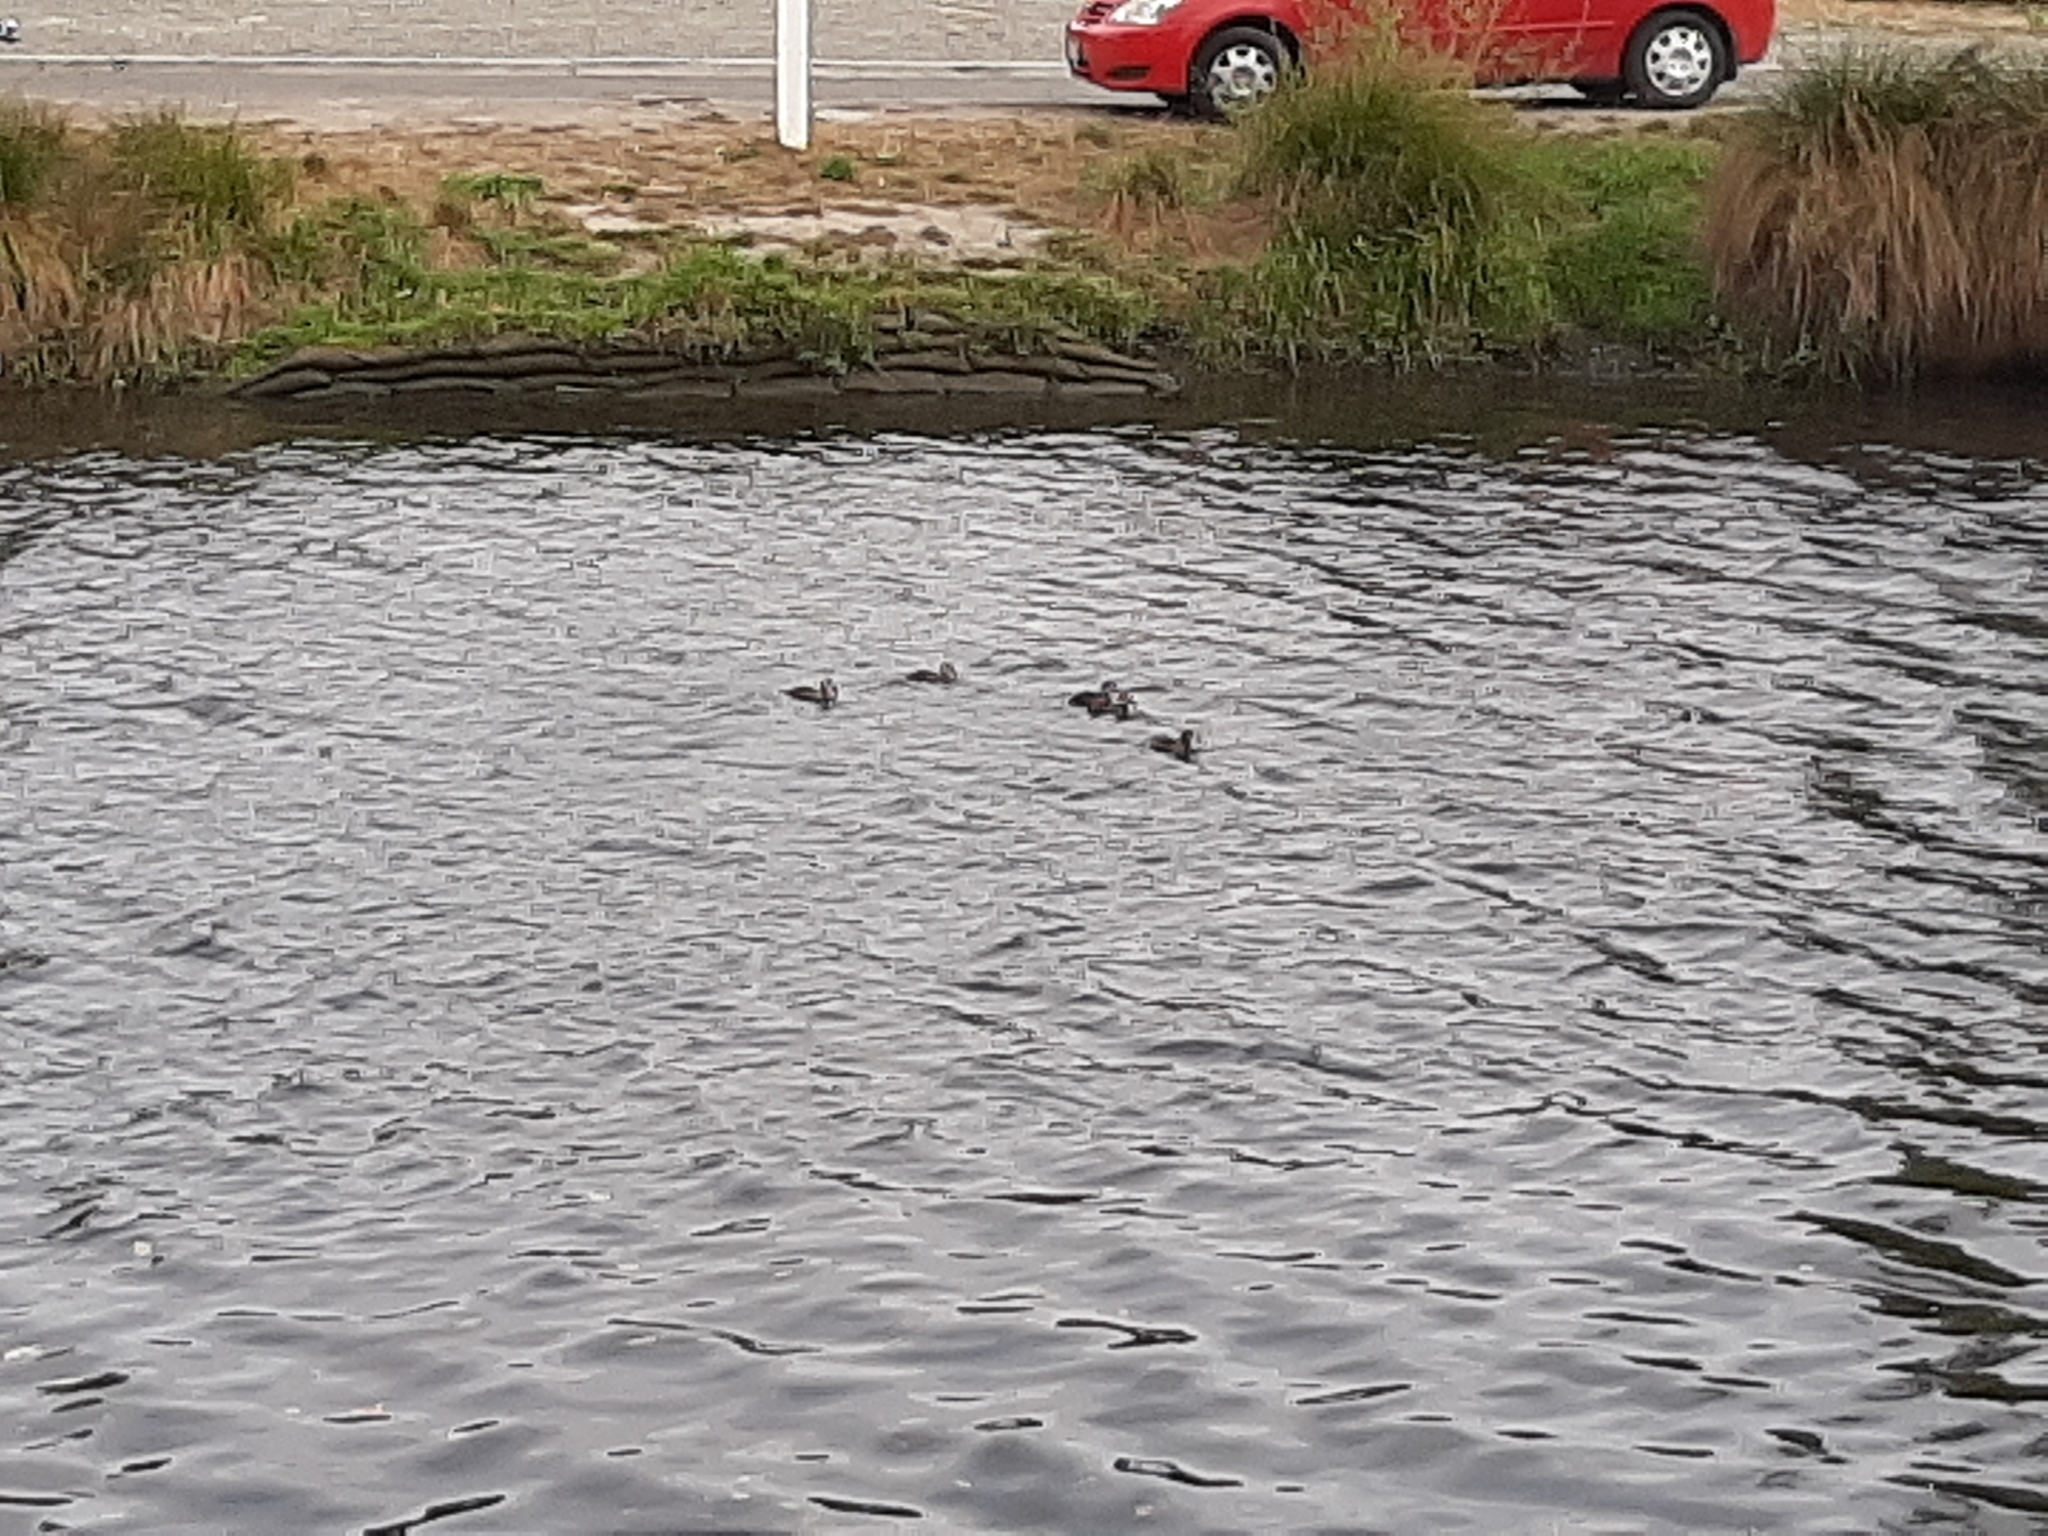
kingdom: Animalia
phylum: Chordata
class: Aves
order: Anseriformes
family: Anatidae
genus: Aythya
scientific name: Aythya novaeseelandiae
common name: New zealand scaup
